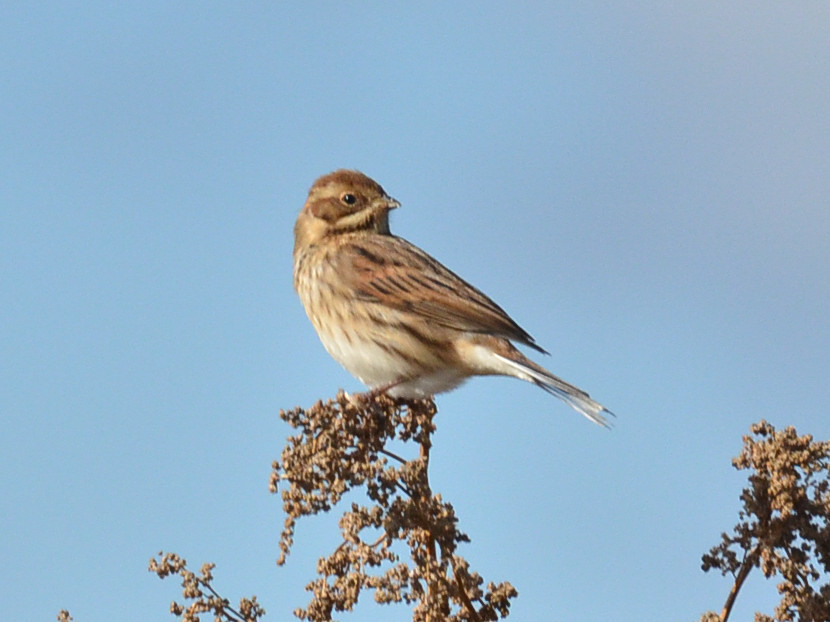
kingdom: Animalia
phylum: Chordata
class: Aves
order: Passeriformes
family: Emberizidae
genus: Emberiza
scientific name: Emberiza schoeniclus
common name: Reed bunting
